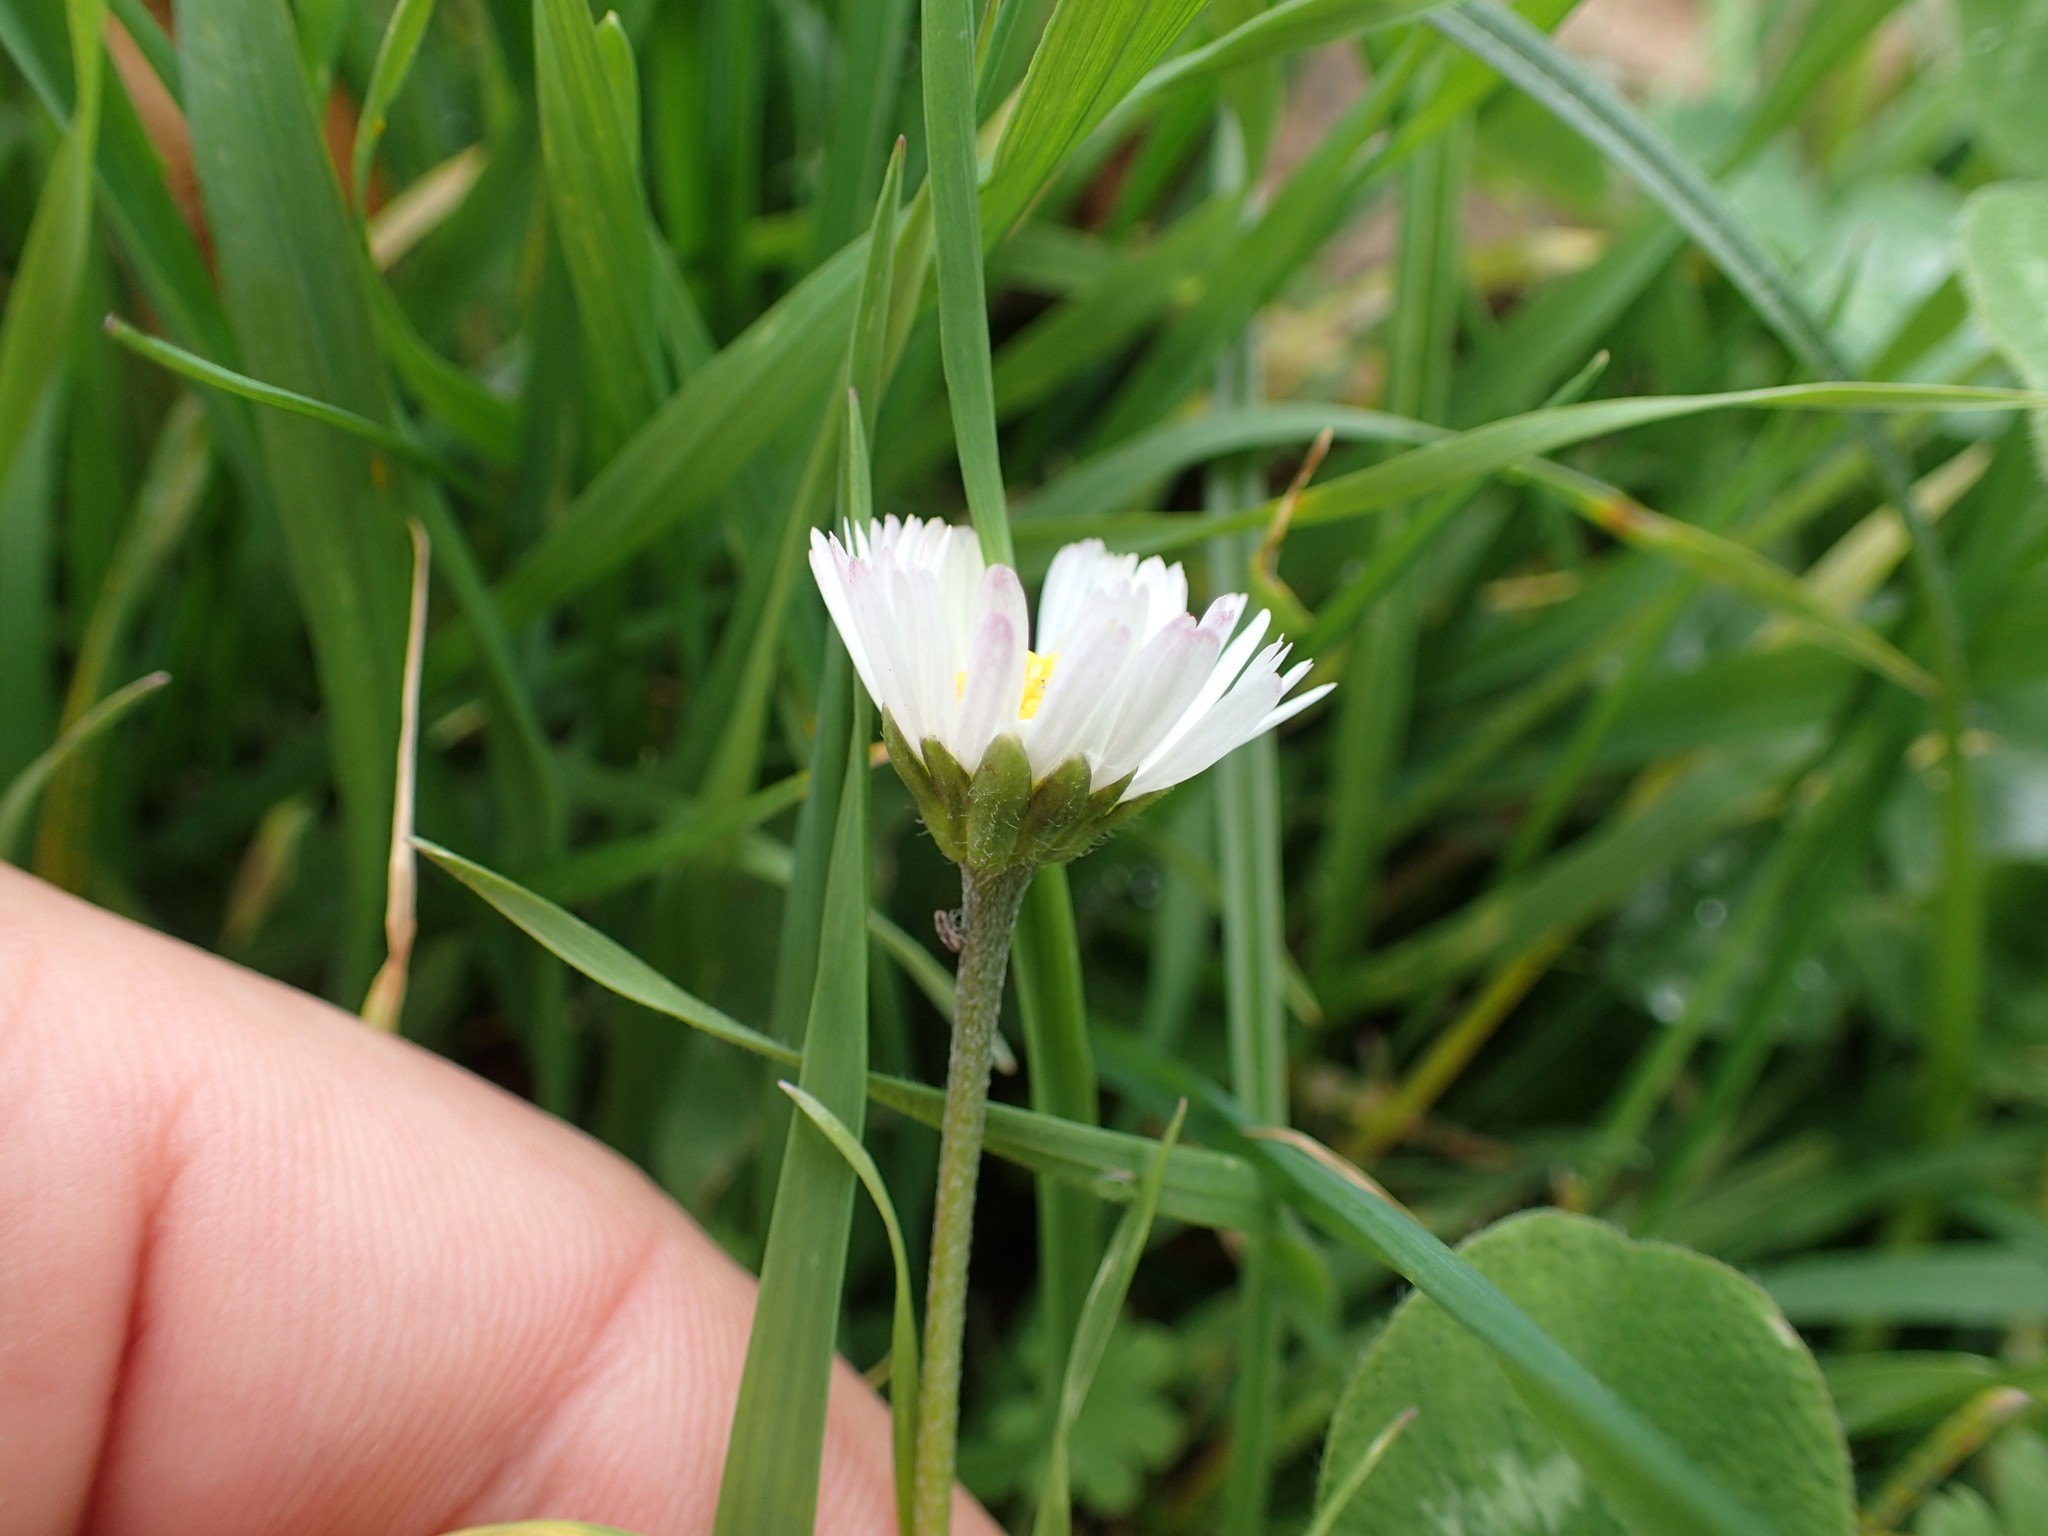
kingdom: Plantae
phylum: Tracheophyta
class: Magnoliopsida
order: Asterales
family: Asteraceae
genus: Bellis
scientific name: Bellis perennis
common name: Lawndaisy
